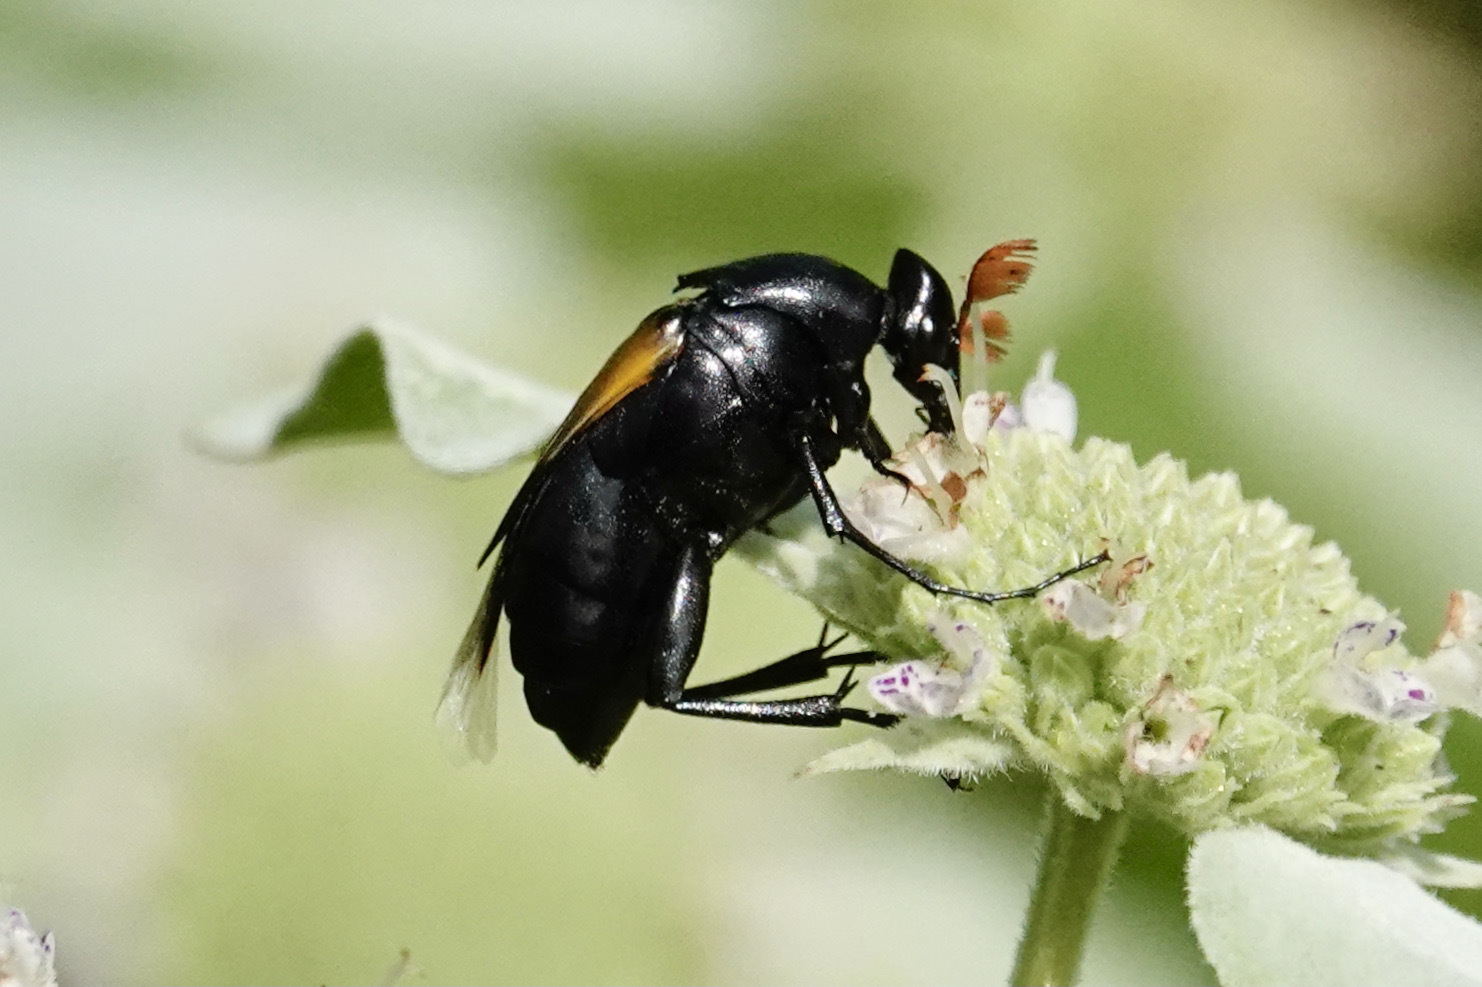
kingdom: Animalia
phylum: Arthropoda
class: Insecta
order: Coleoptera
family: Ripiphoridae
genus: Macrosiagon
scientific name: Macrosiagon dimidiata
